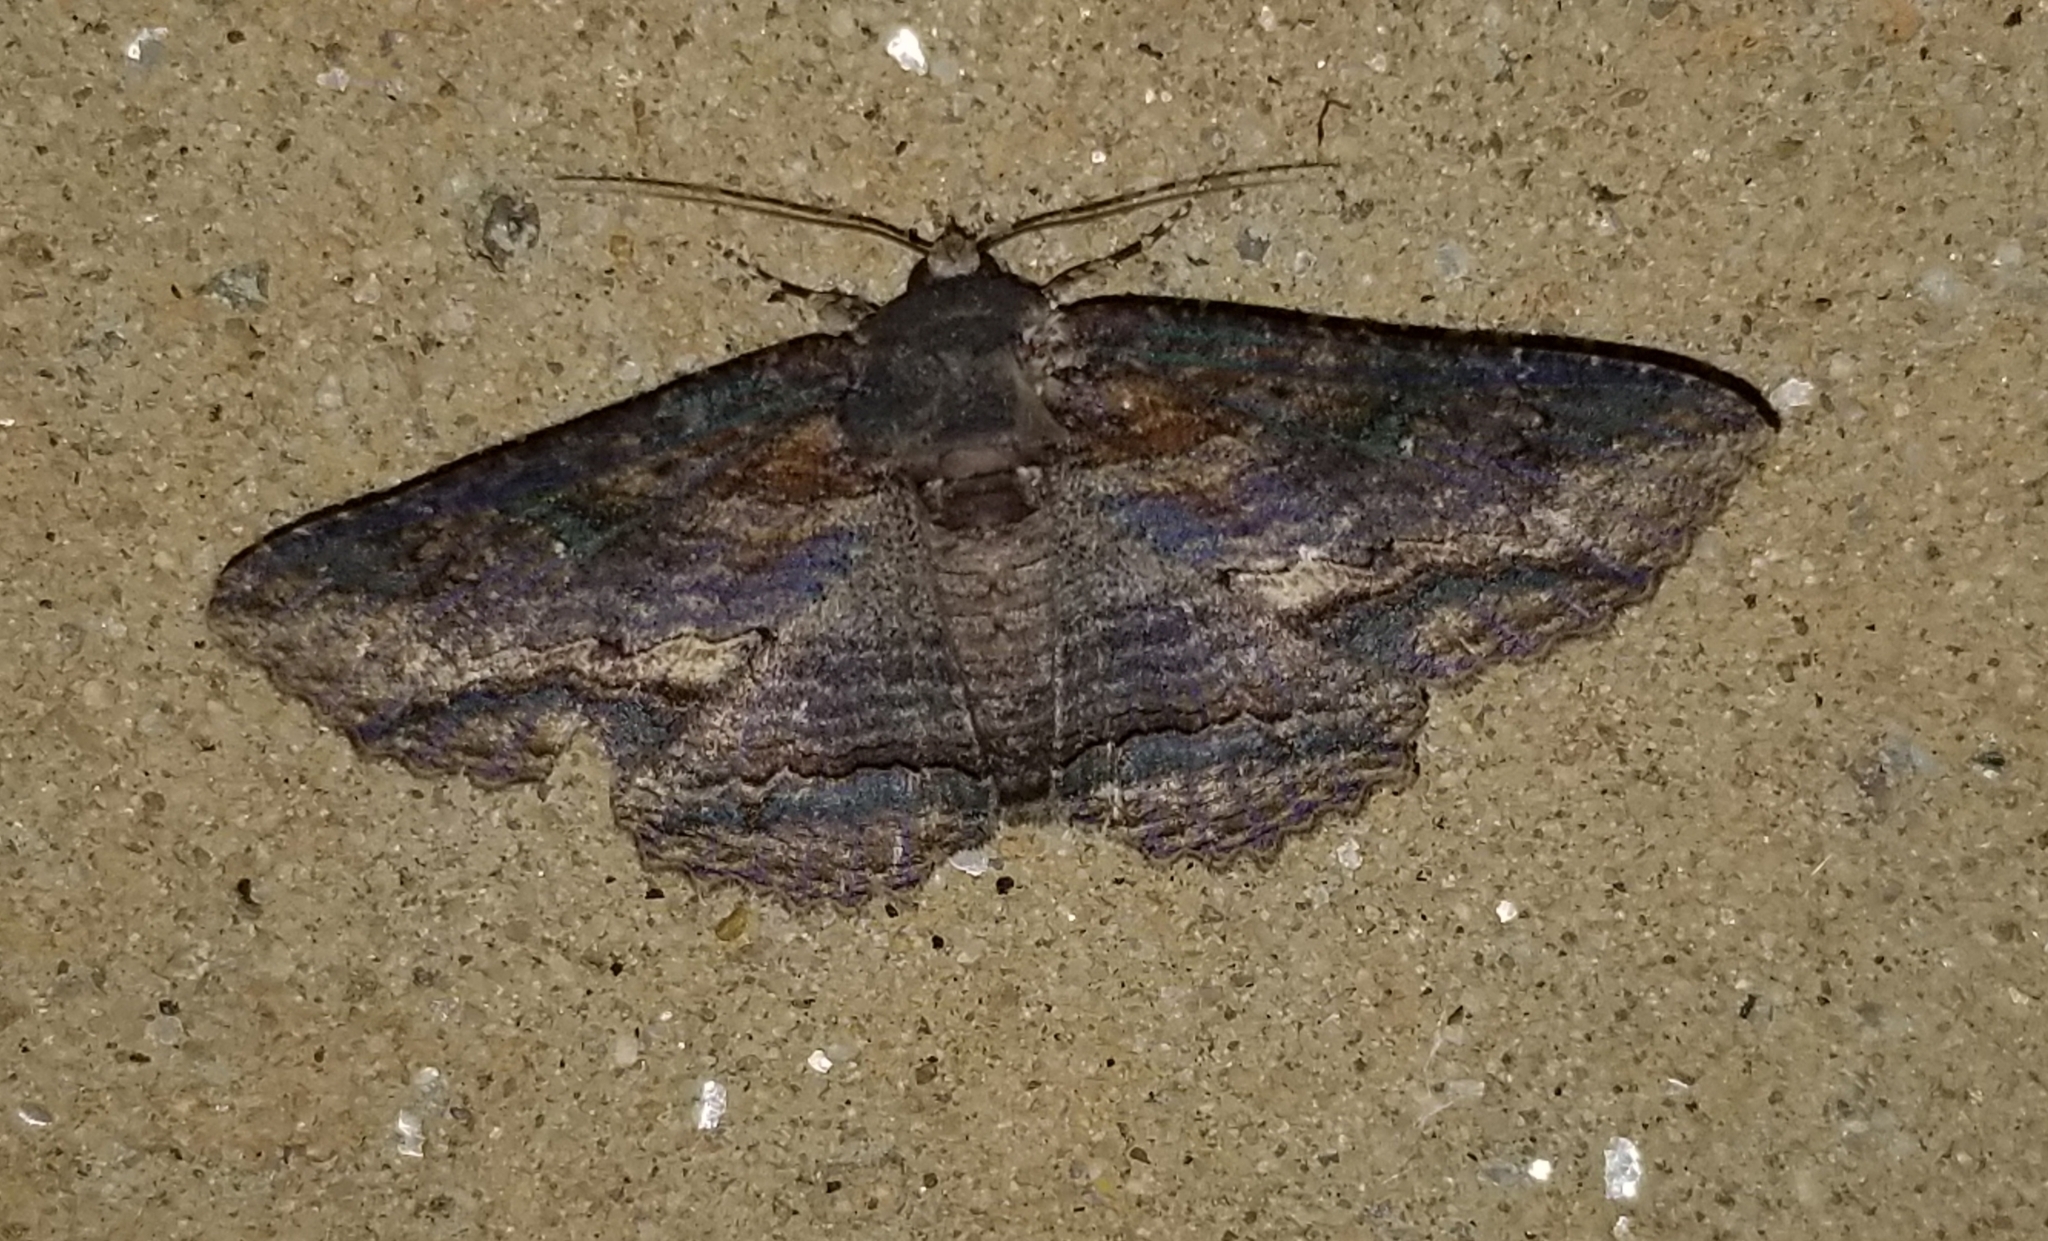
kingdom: Animalia
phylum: Arthropoda
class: Insecta
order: Lepidoptera
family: Erebidae
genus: Zale
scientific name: Zale lunata
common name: Lunate zale moth
